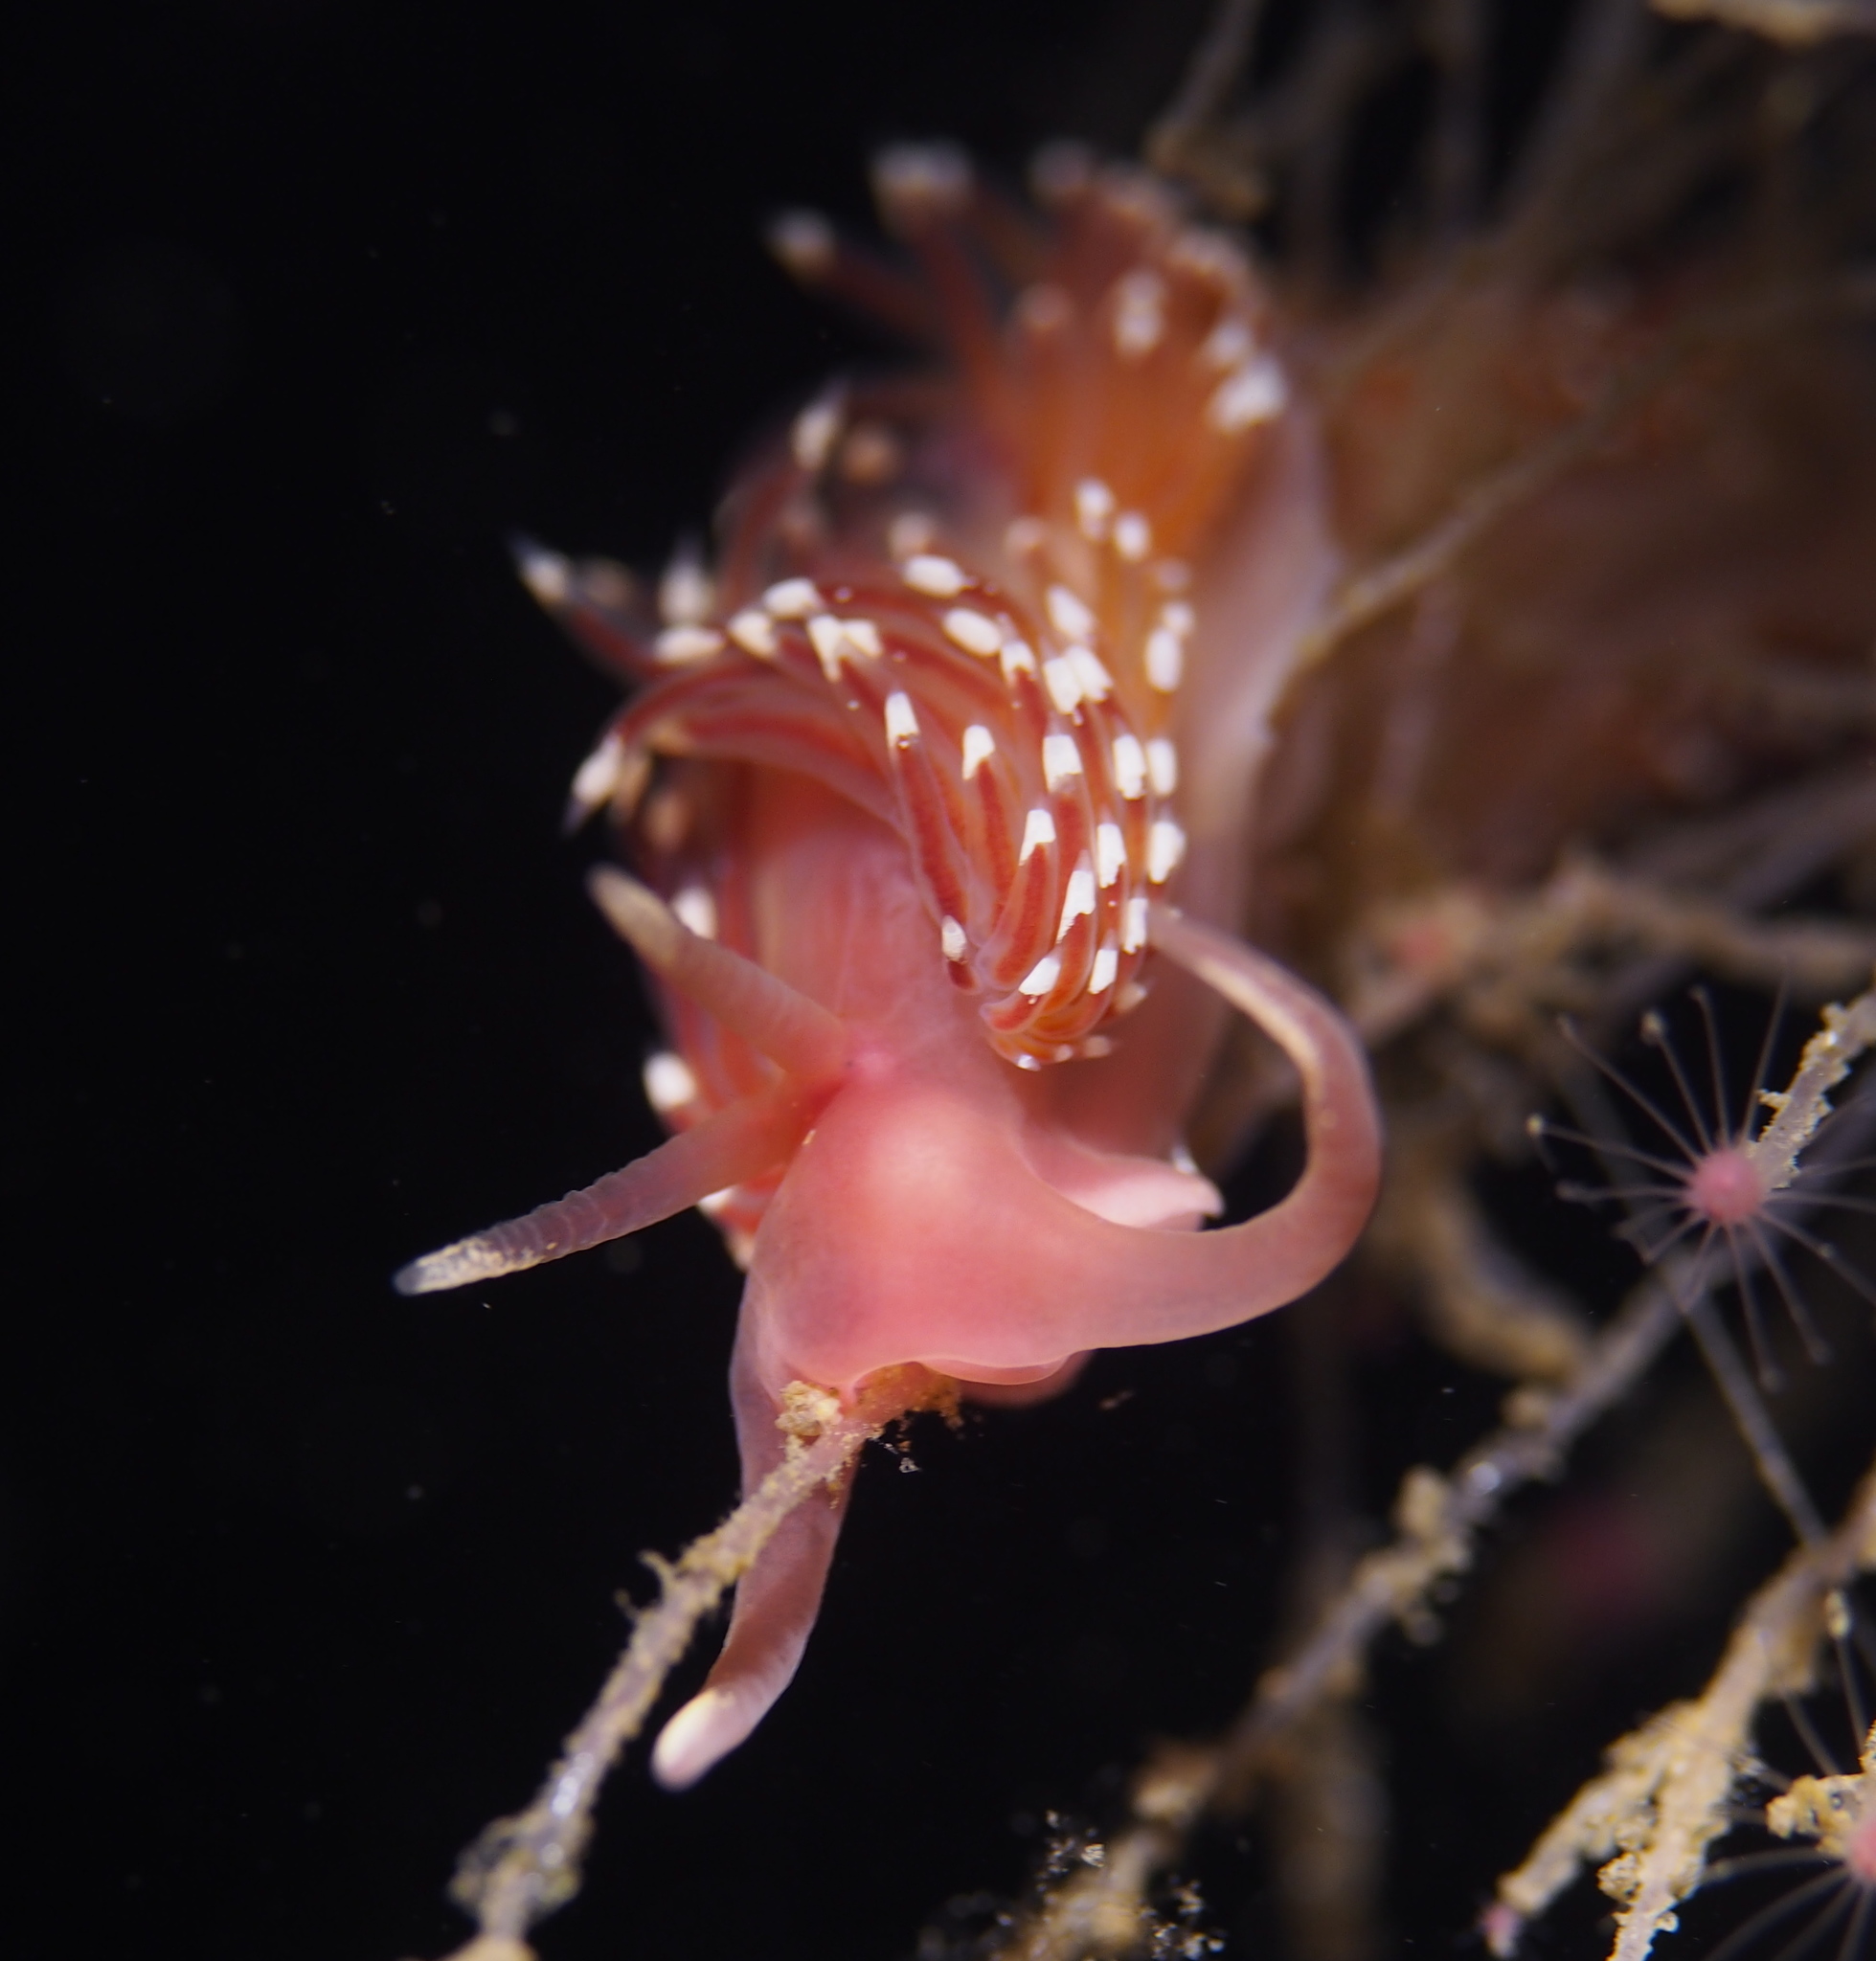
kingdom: Animalia
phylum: Mollusca
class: Gastropoda
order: Nudibranchia
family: Facelinidae
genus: Facelina
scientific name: Facelina bostoniensis
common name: Boston facelina
